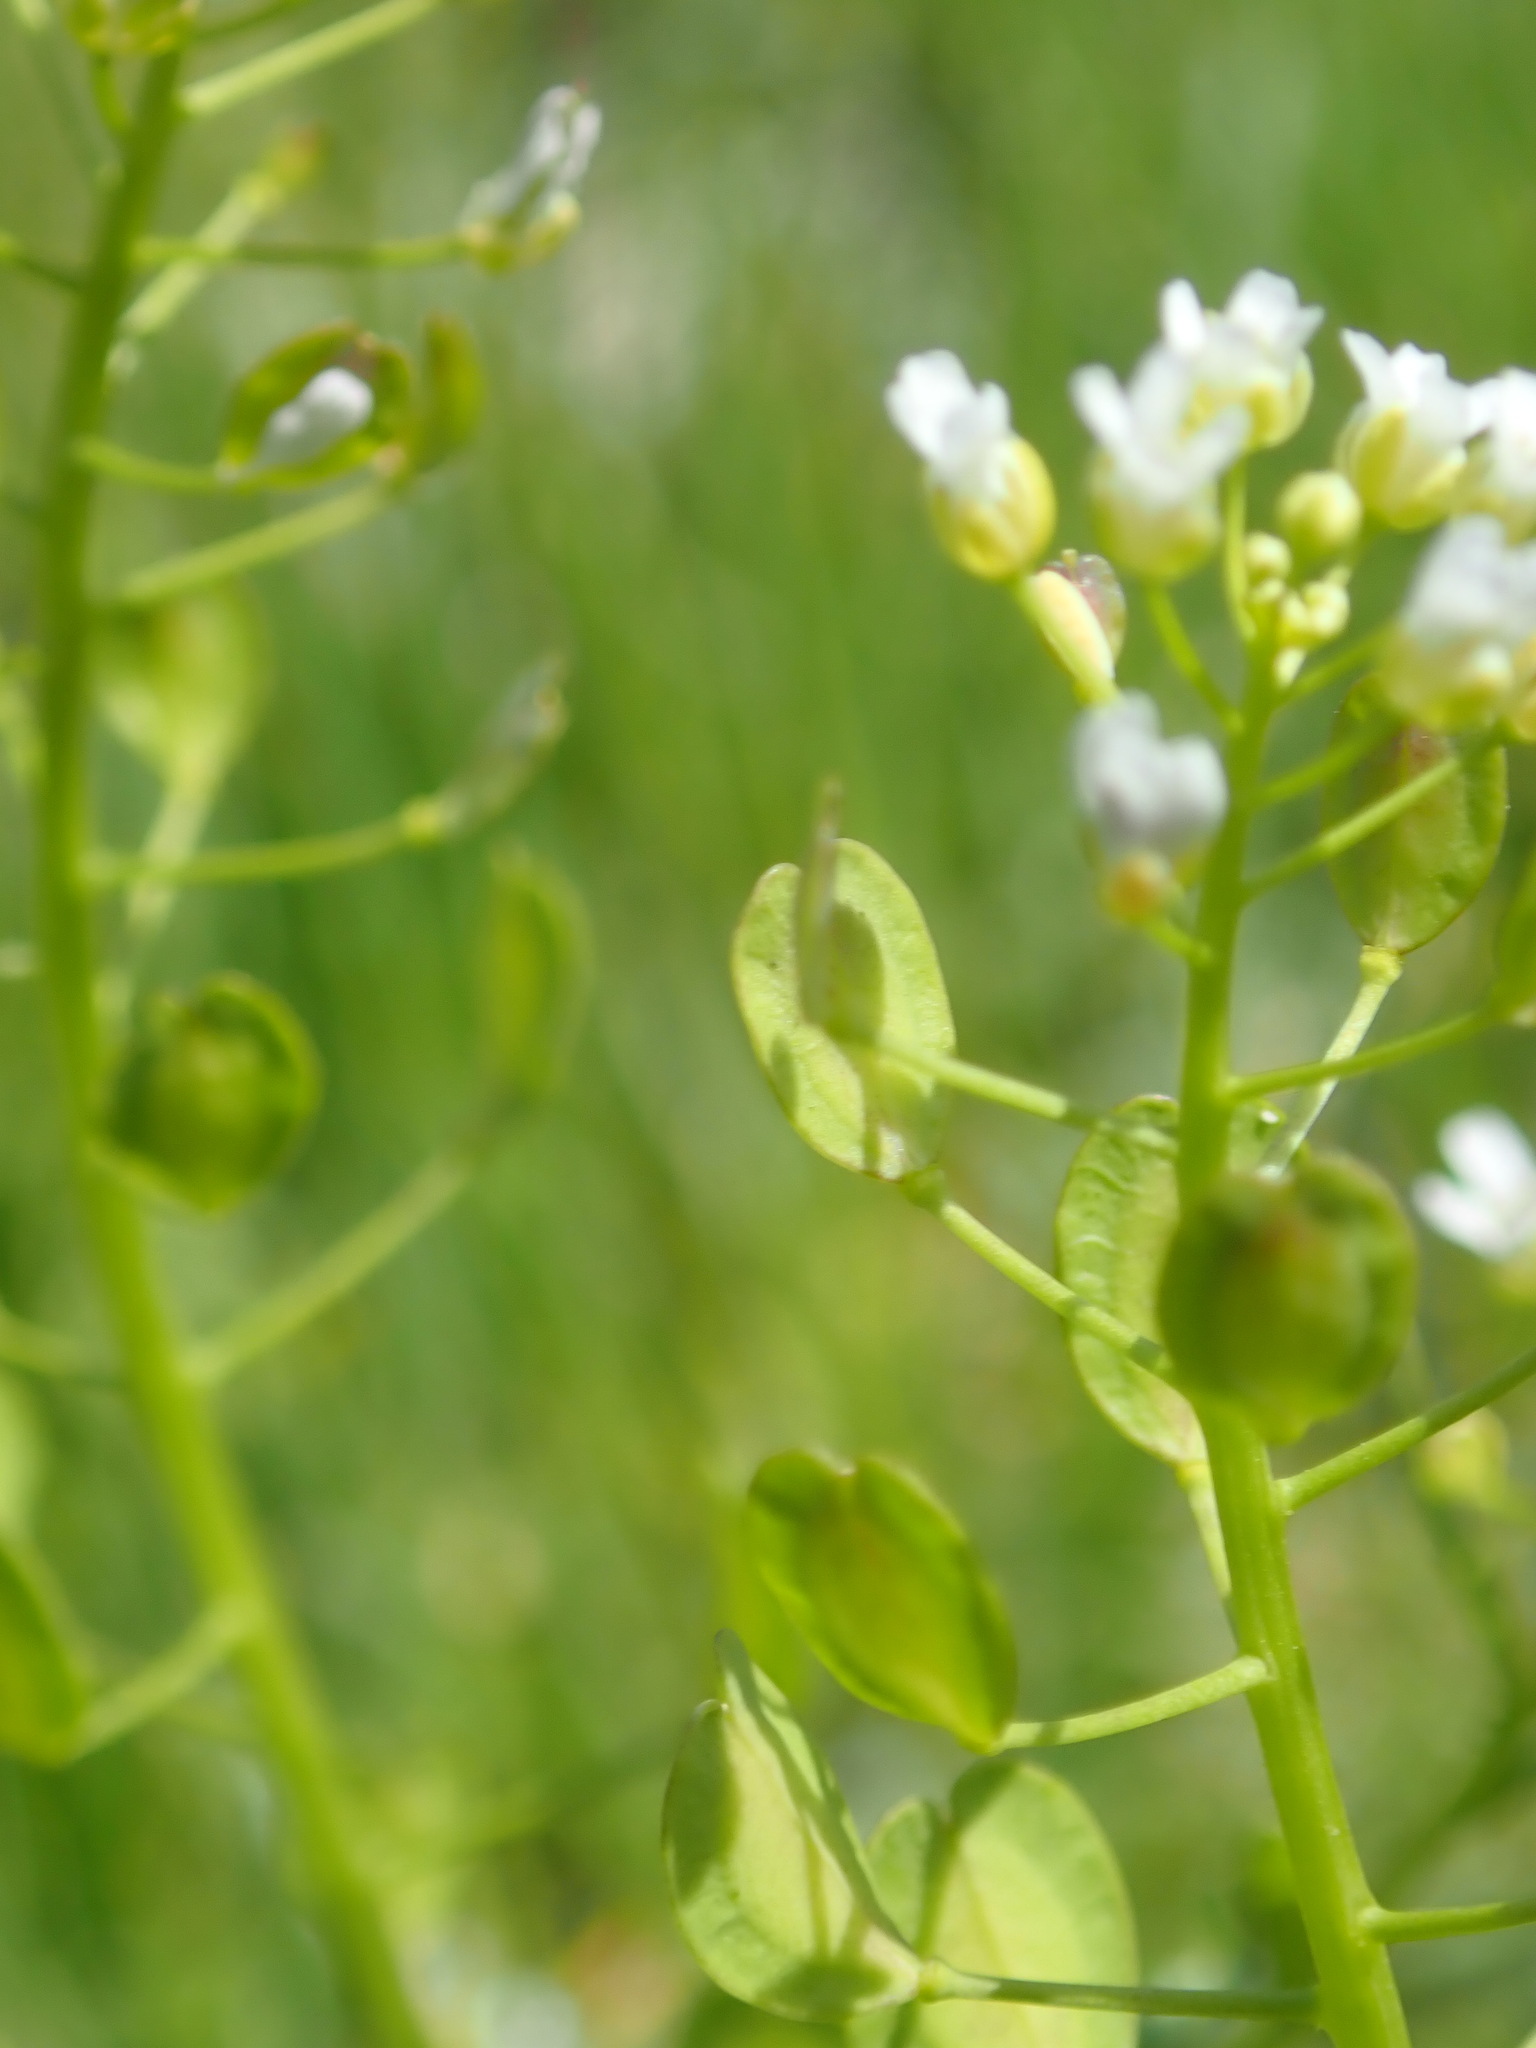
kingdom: Plantae
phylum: Tracheophyta
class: Magnoliopsida
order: Brassicales
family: Brassicaceae
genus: Alliaria
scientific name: Alliaria petiolata
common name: Garlic mustard
